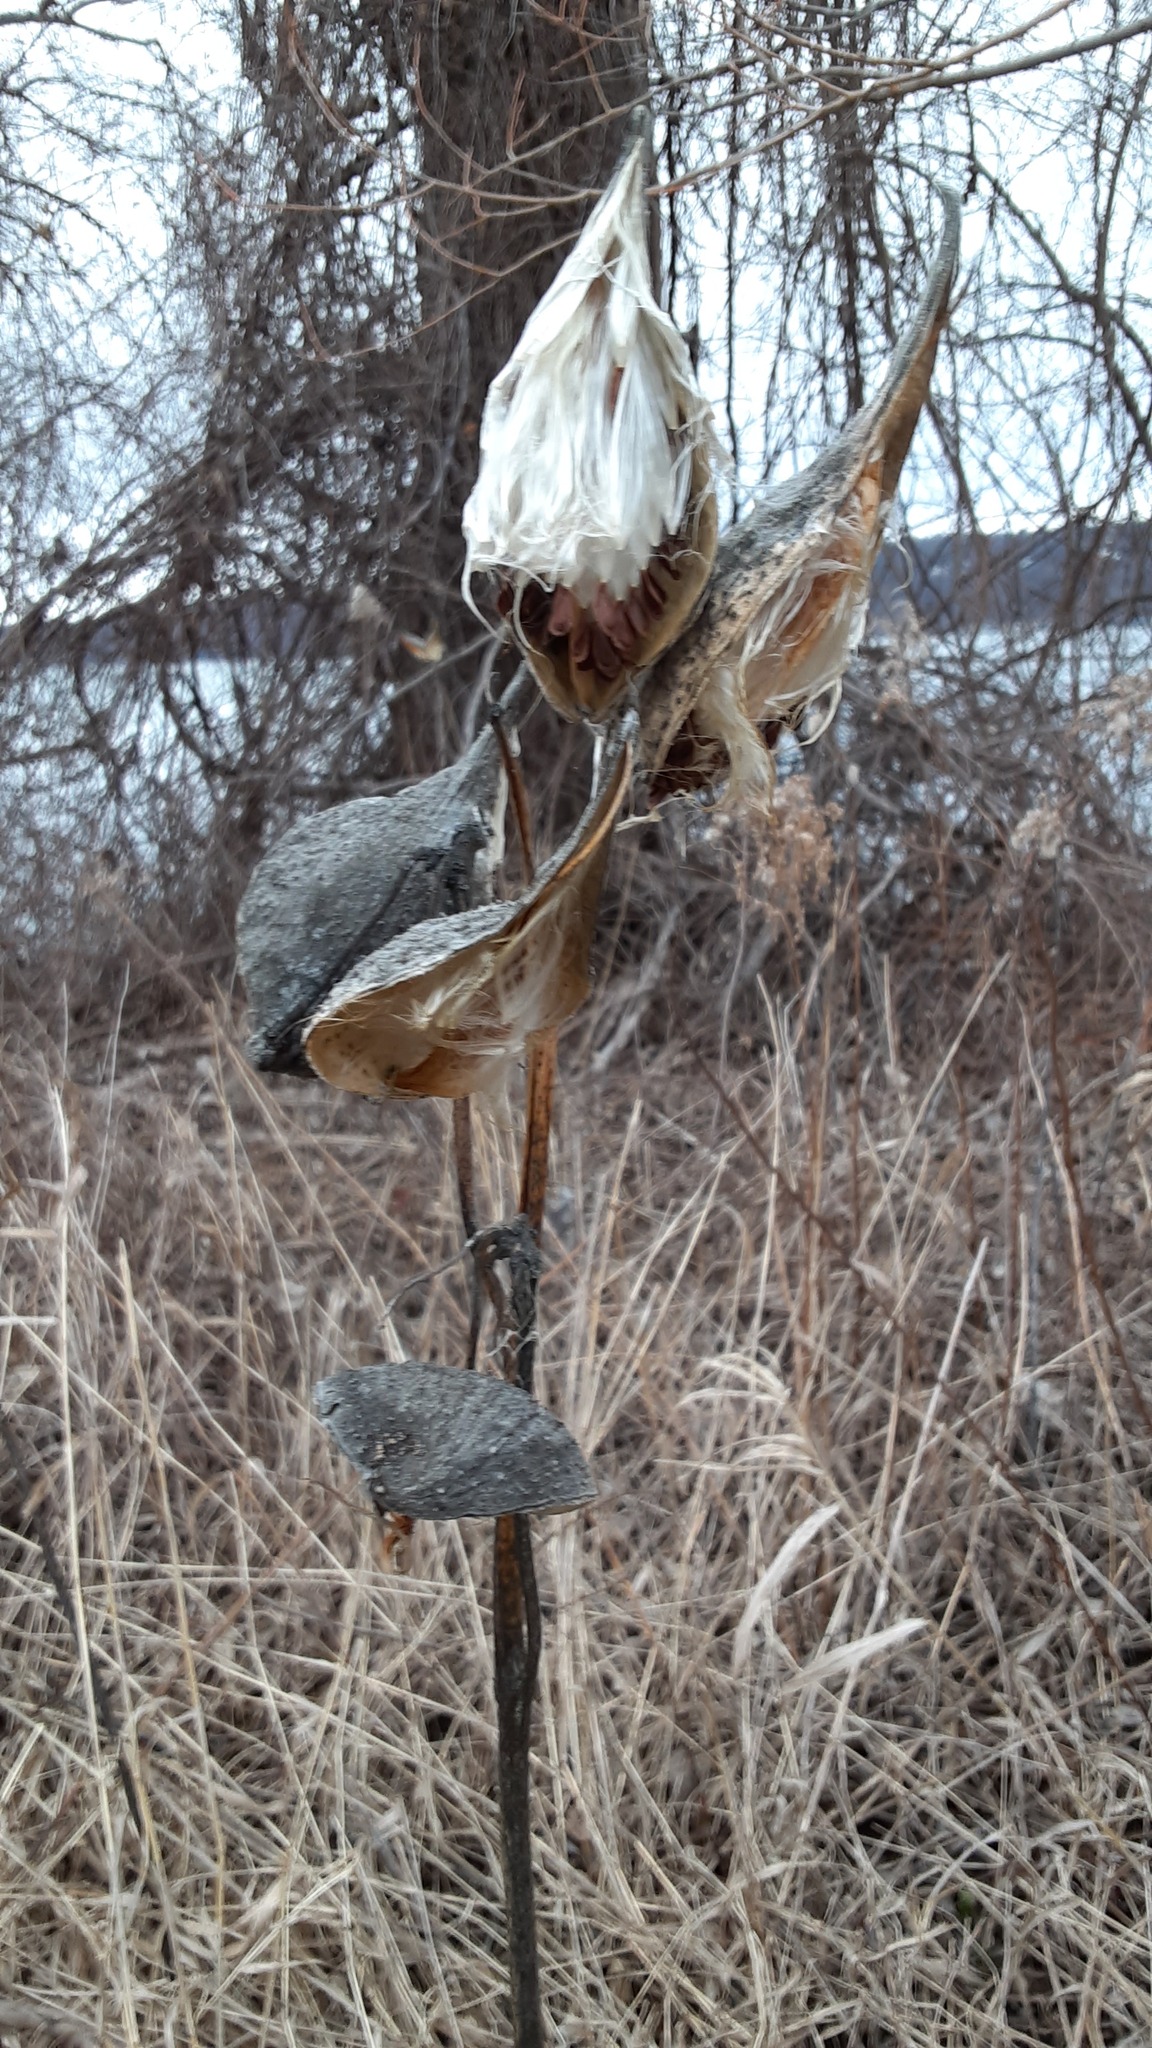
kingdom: Plantae
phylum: Tracheophyta
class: Magnoliopsida
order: Gentianales
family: Apocynaceae
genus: Asclepias
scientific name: Asclepias syriaca
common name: Common milkweed
